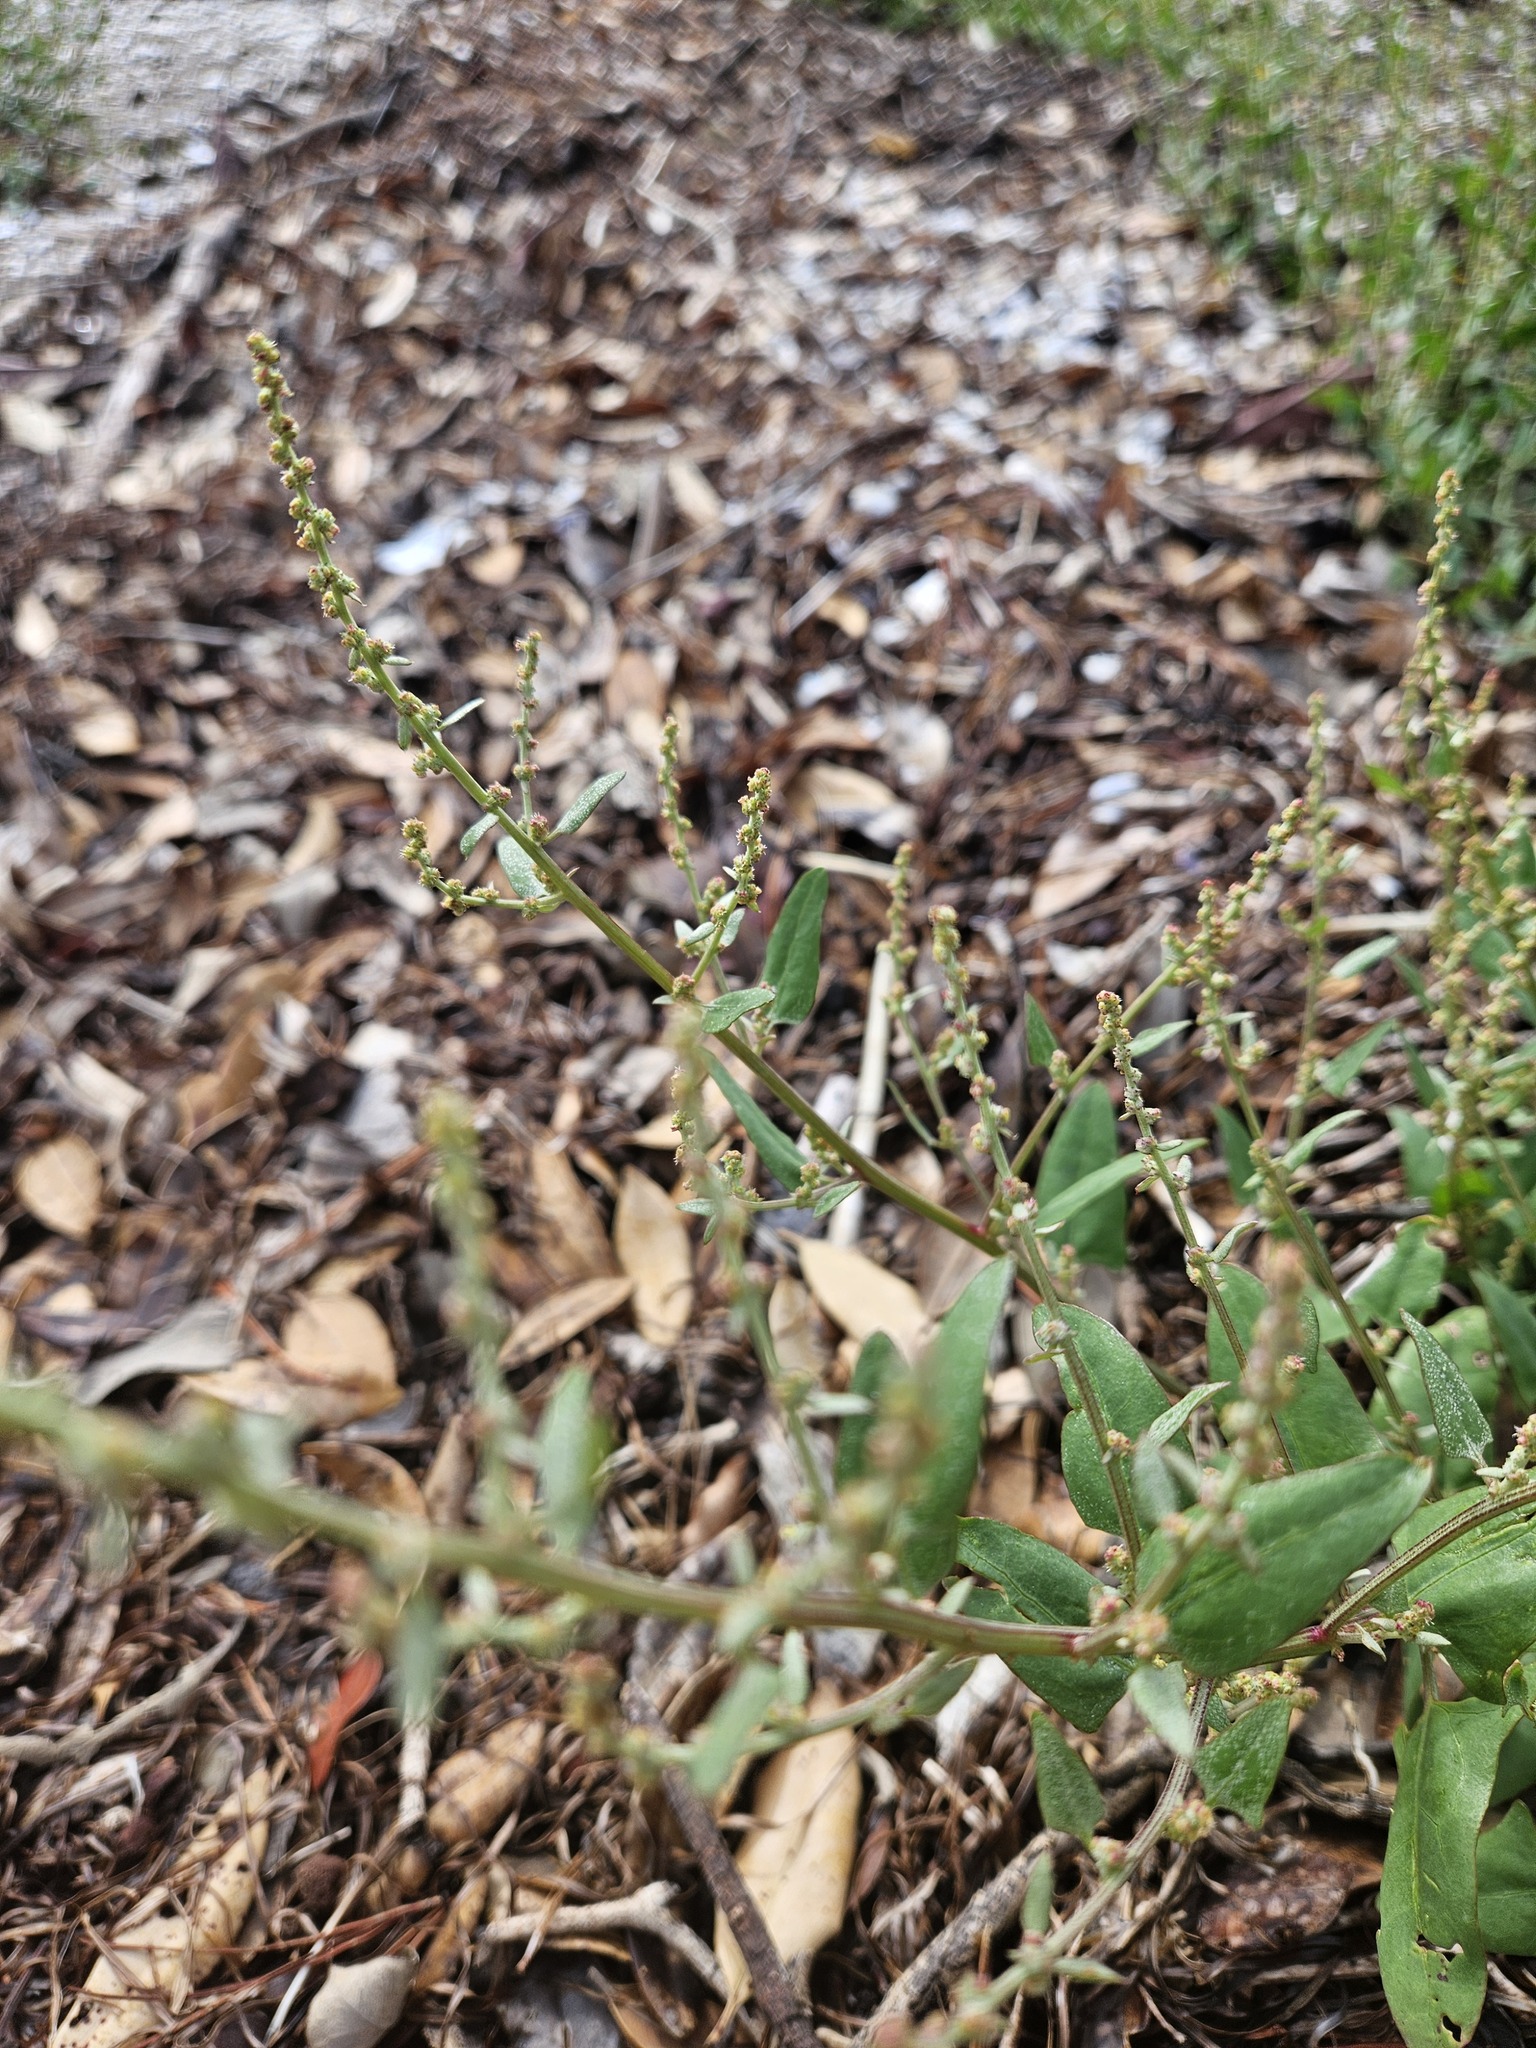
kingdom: Plantae
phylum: Tracheophyta
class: Magnoliopsida
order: Caryophyllales
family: Amaranthaceae
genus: Atriplex
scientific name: Atriplex prostrata
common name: Spear-leaved orache
